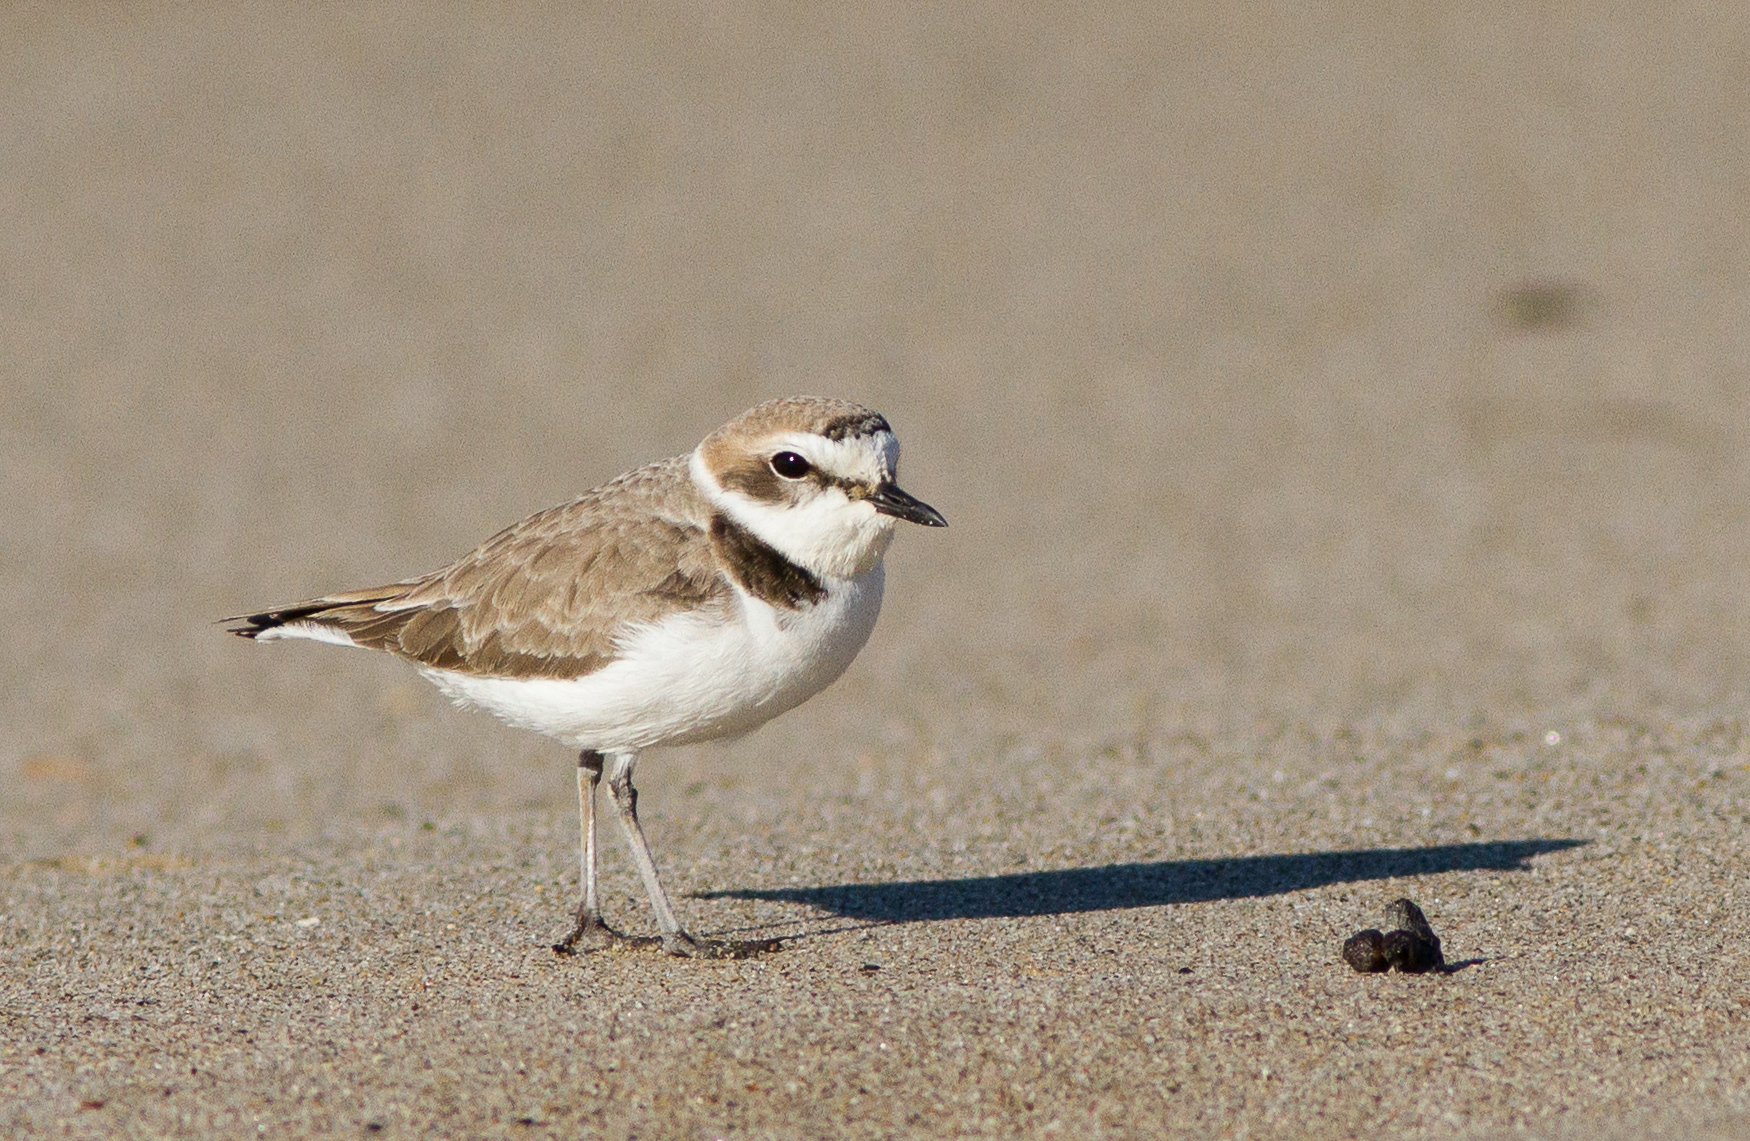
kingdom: Animalia
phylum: Chordata
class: Aves
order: Charadriiformes
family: Charadriidae
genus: Anarhynchus
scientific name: Anarhynchus
